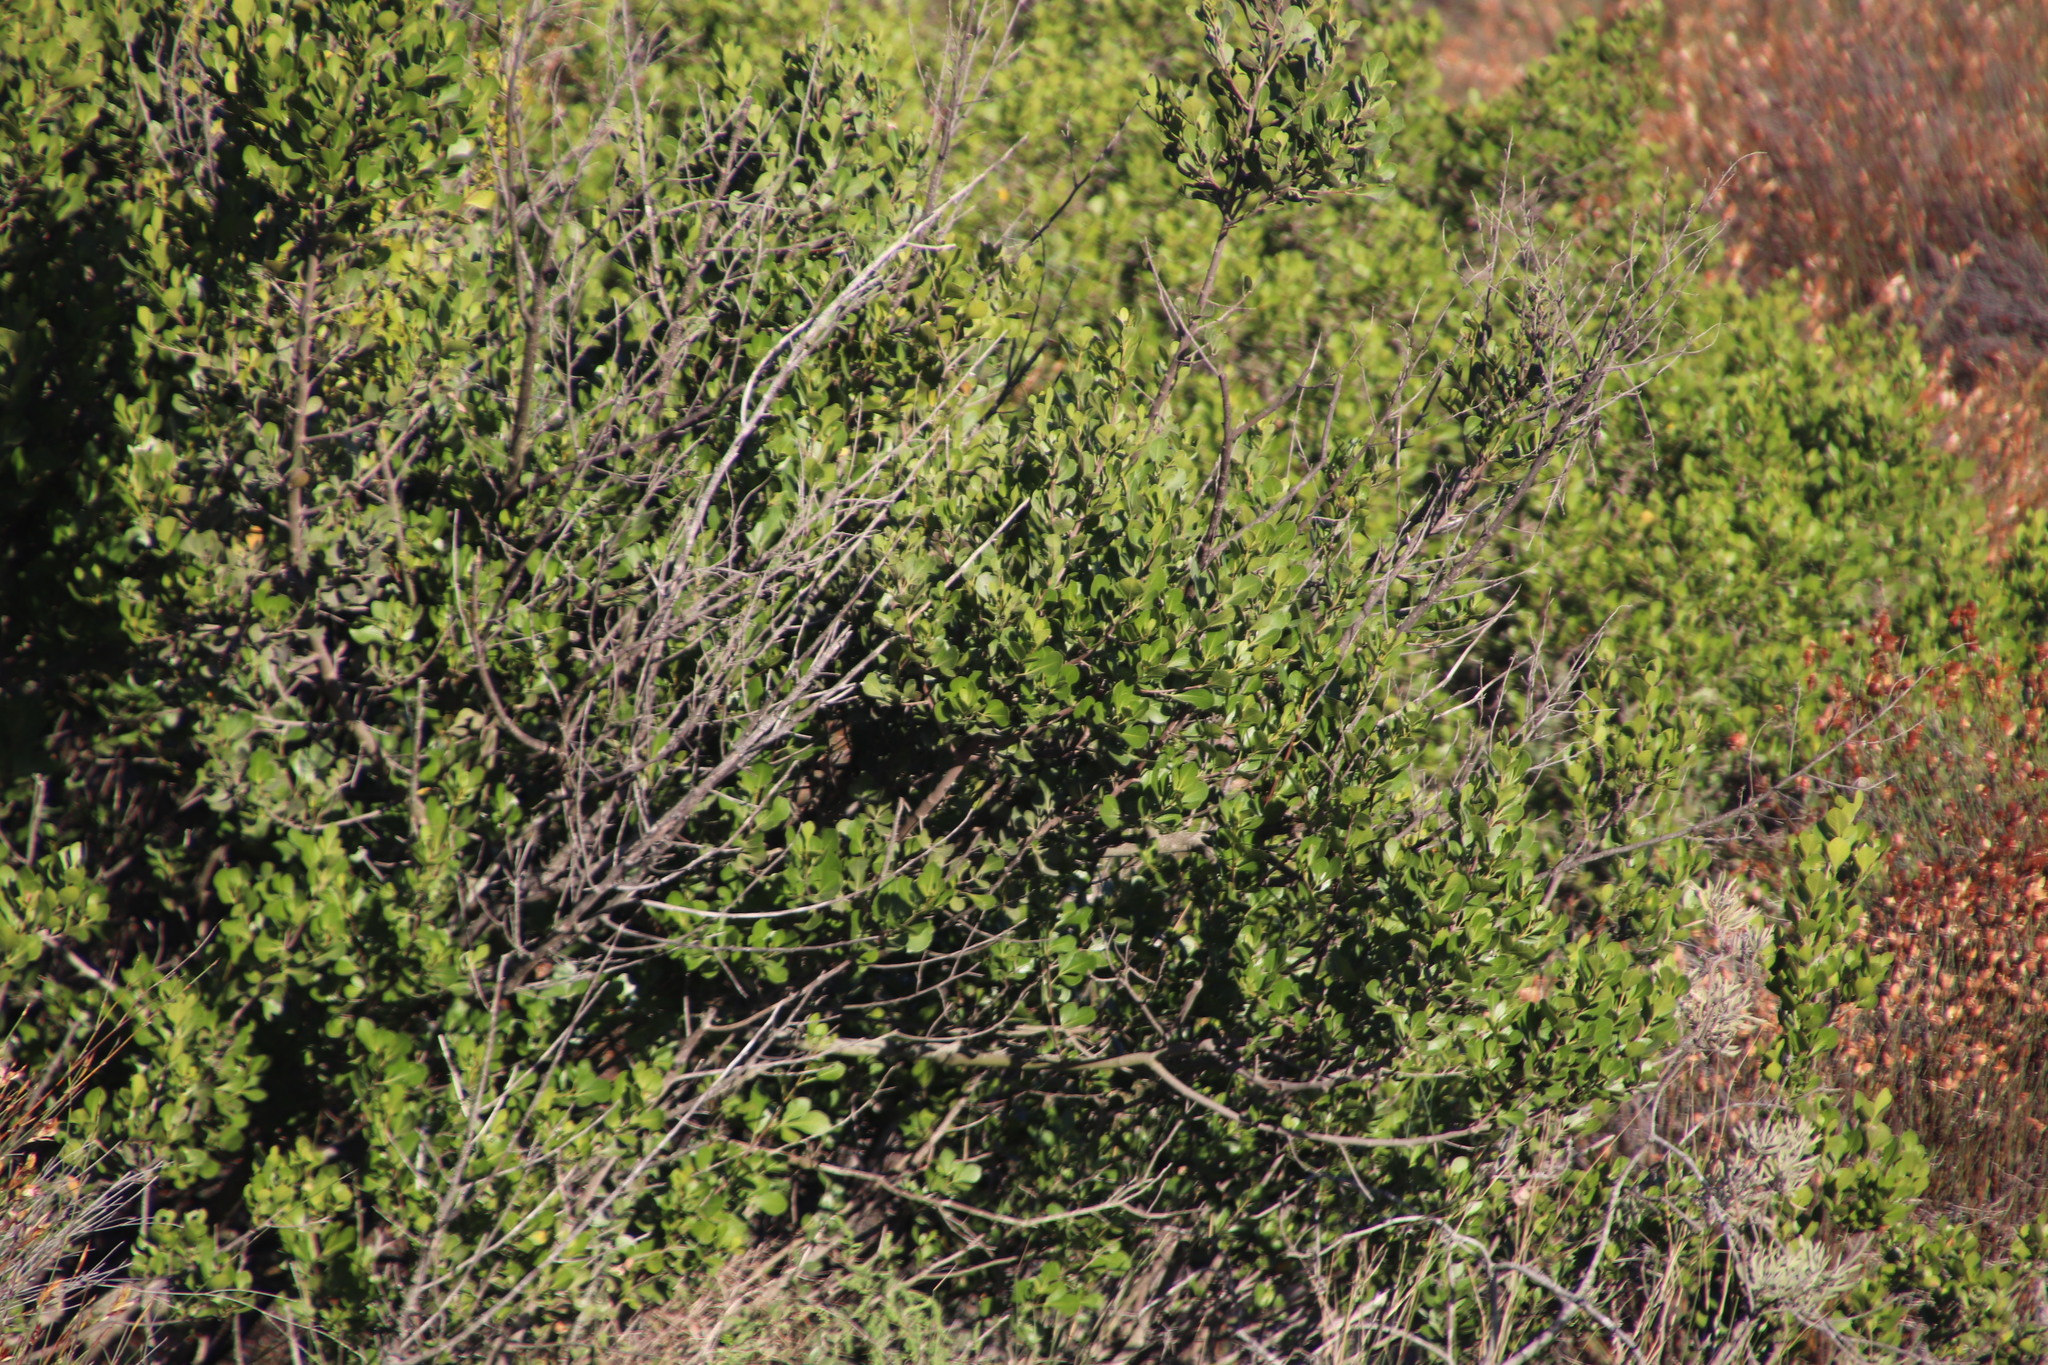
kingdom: Plantae
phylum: Tracheophyta
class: Magnoliopsida
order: Sapindales
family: Anacardiaceae
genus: Searsia
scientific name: Searsia lucida
